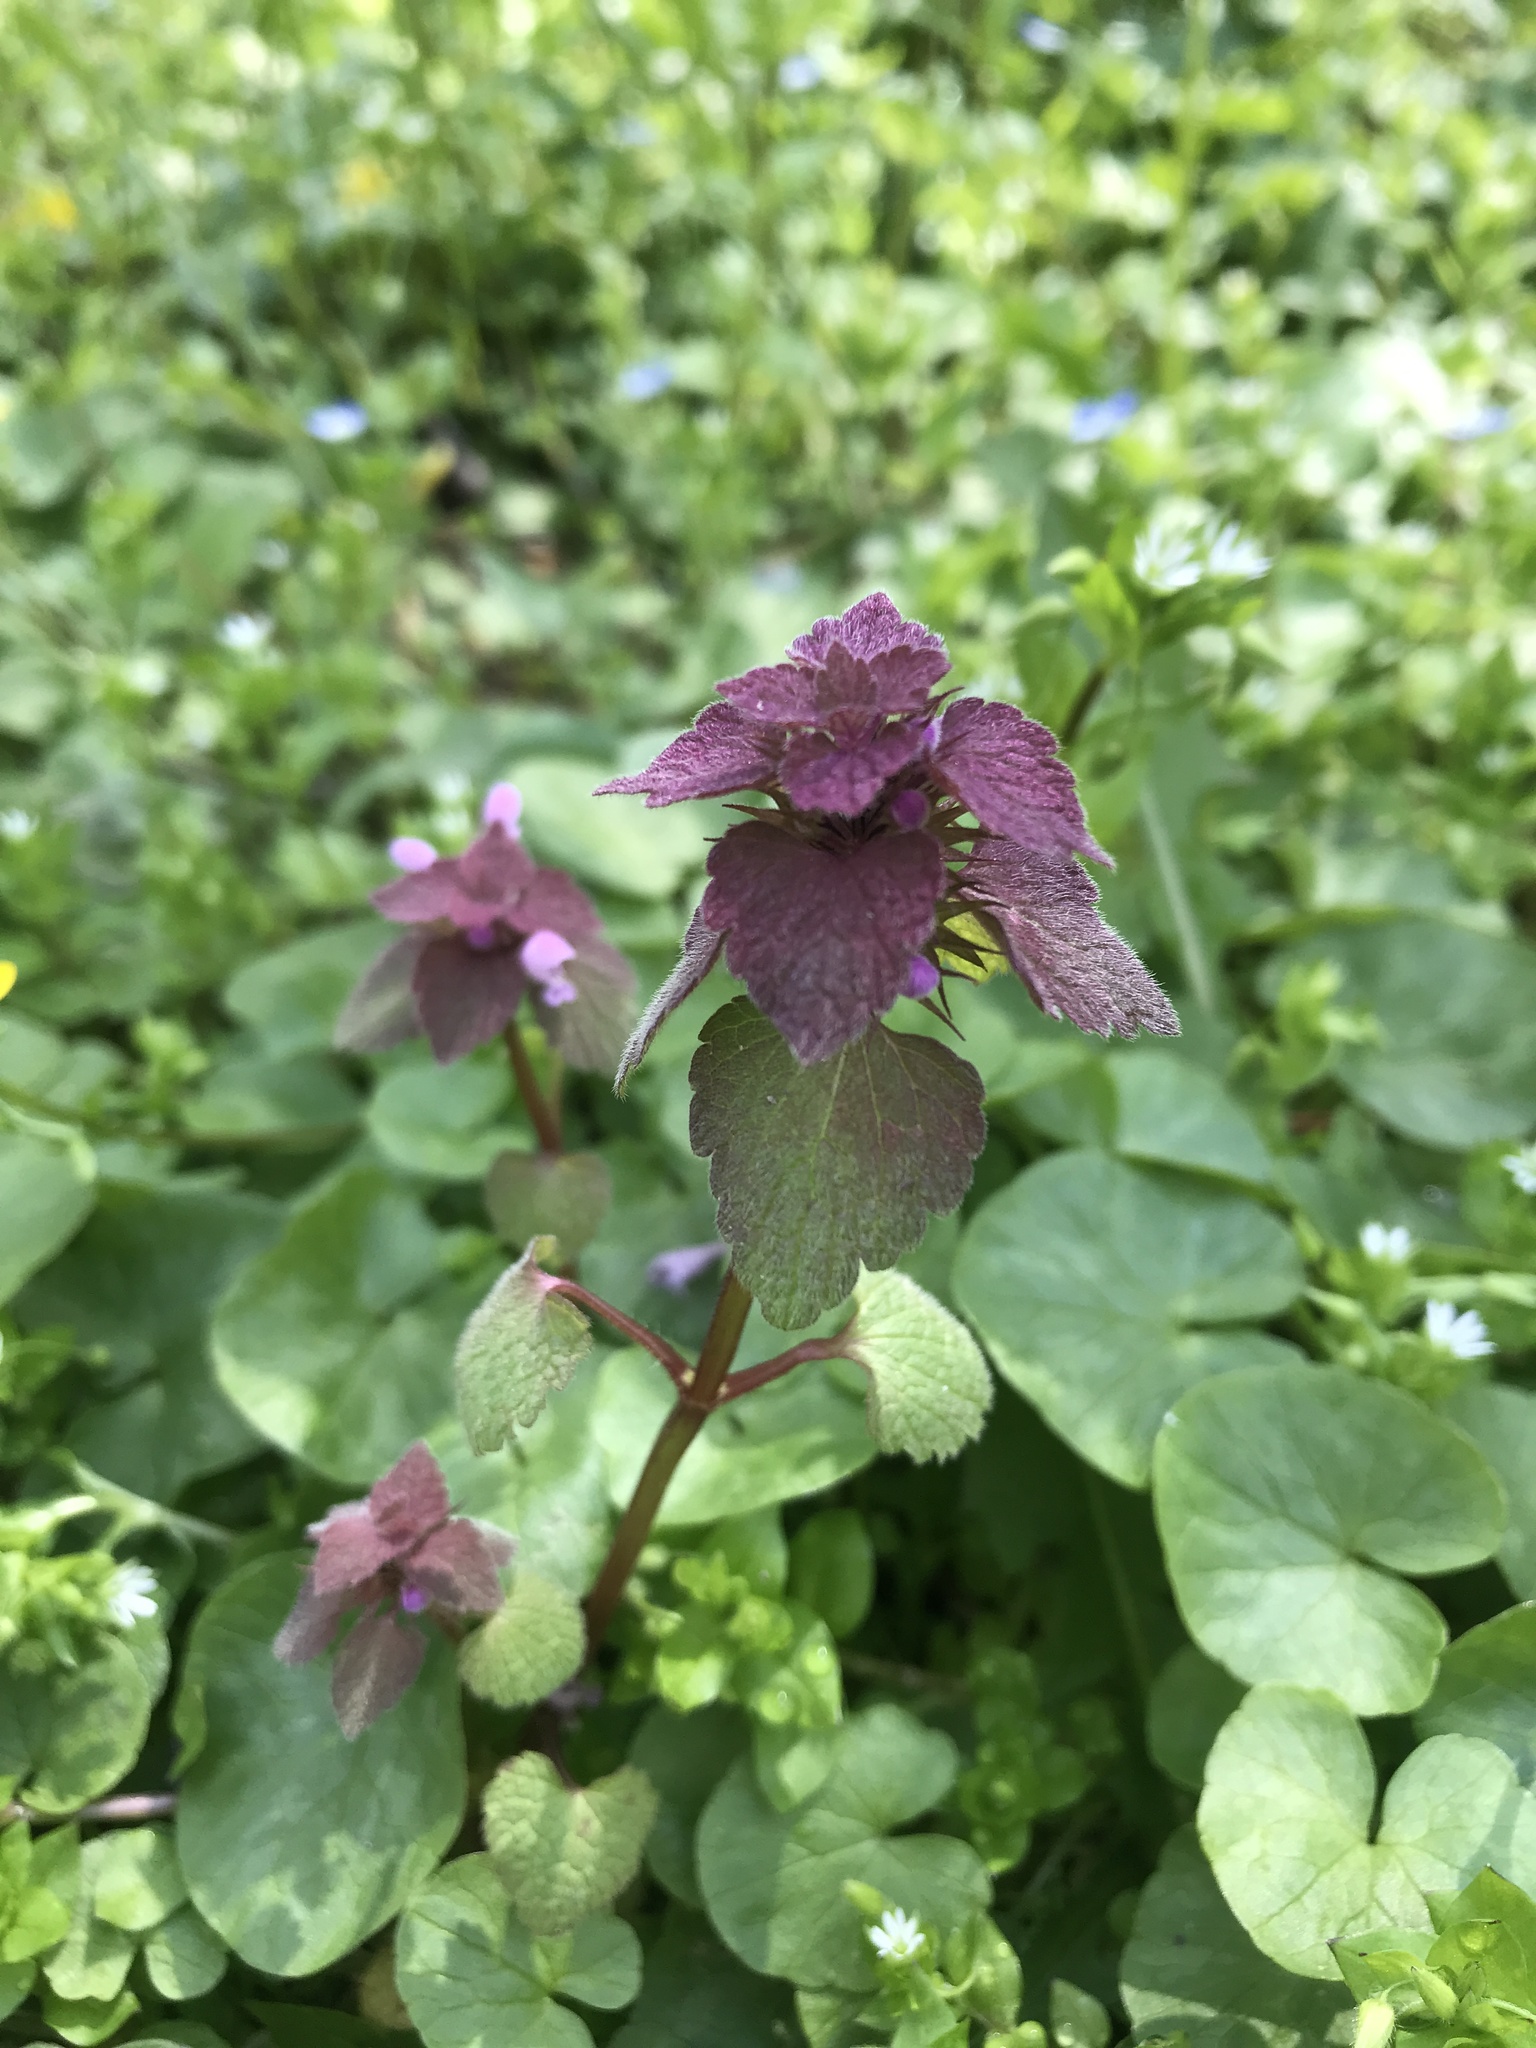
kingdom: Plantae
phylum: Tracheophyta
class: Magnoliopsida
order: Lamiales
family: Lamiaceae
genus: Lamium
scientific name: Lamium purpureum
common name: Red dead-nettle
